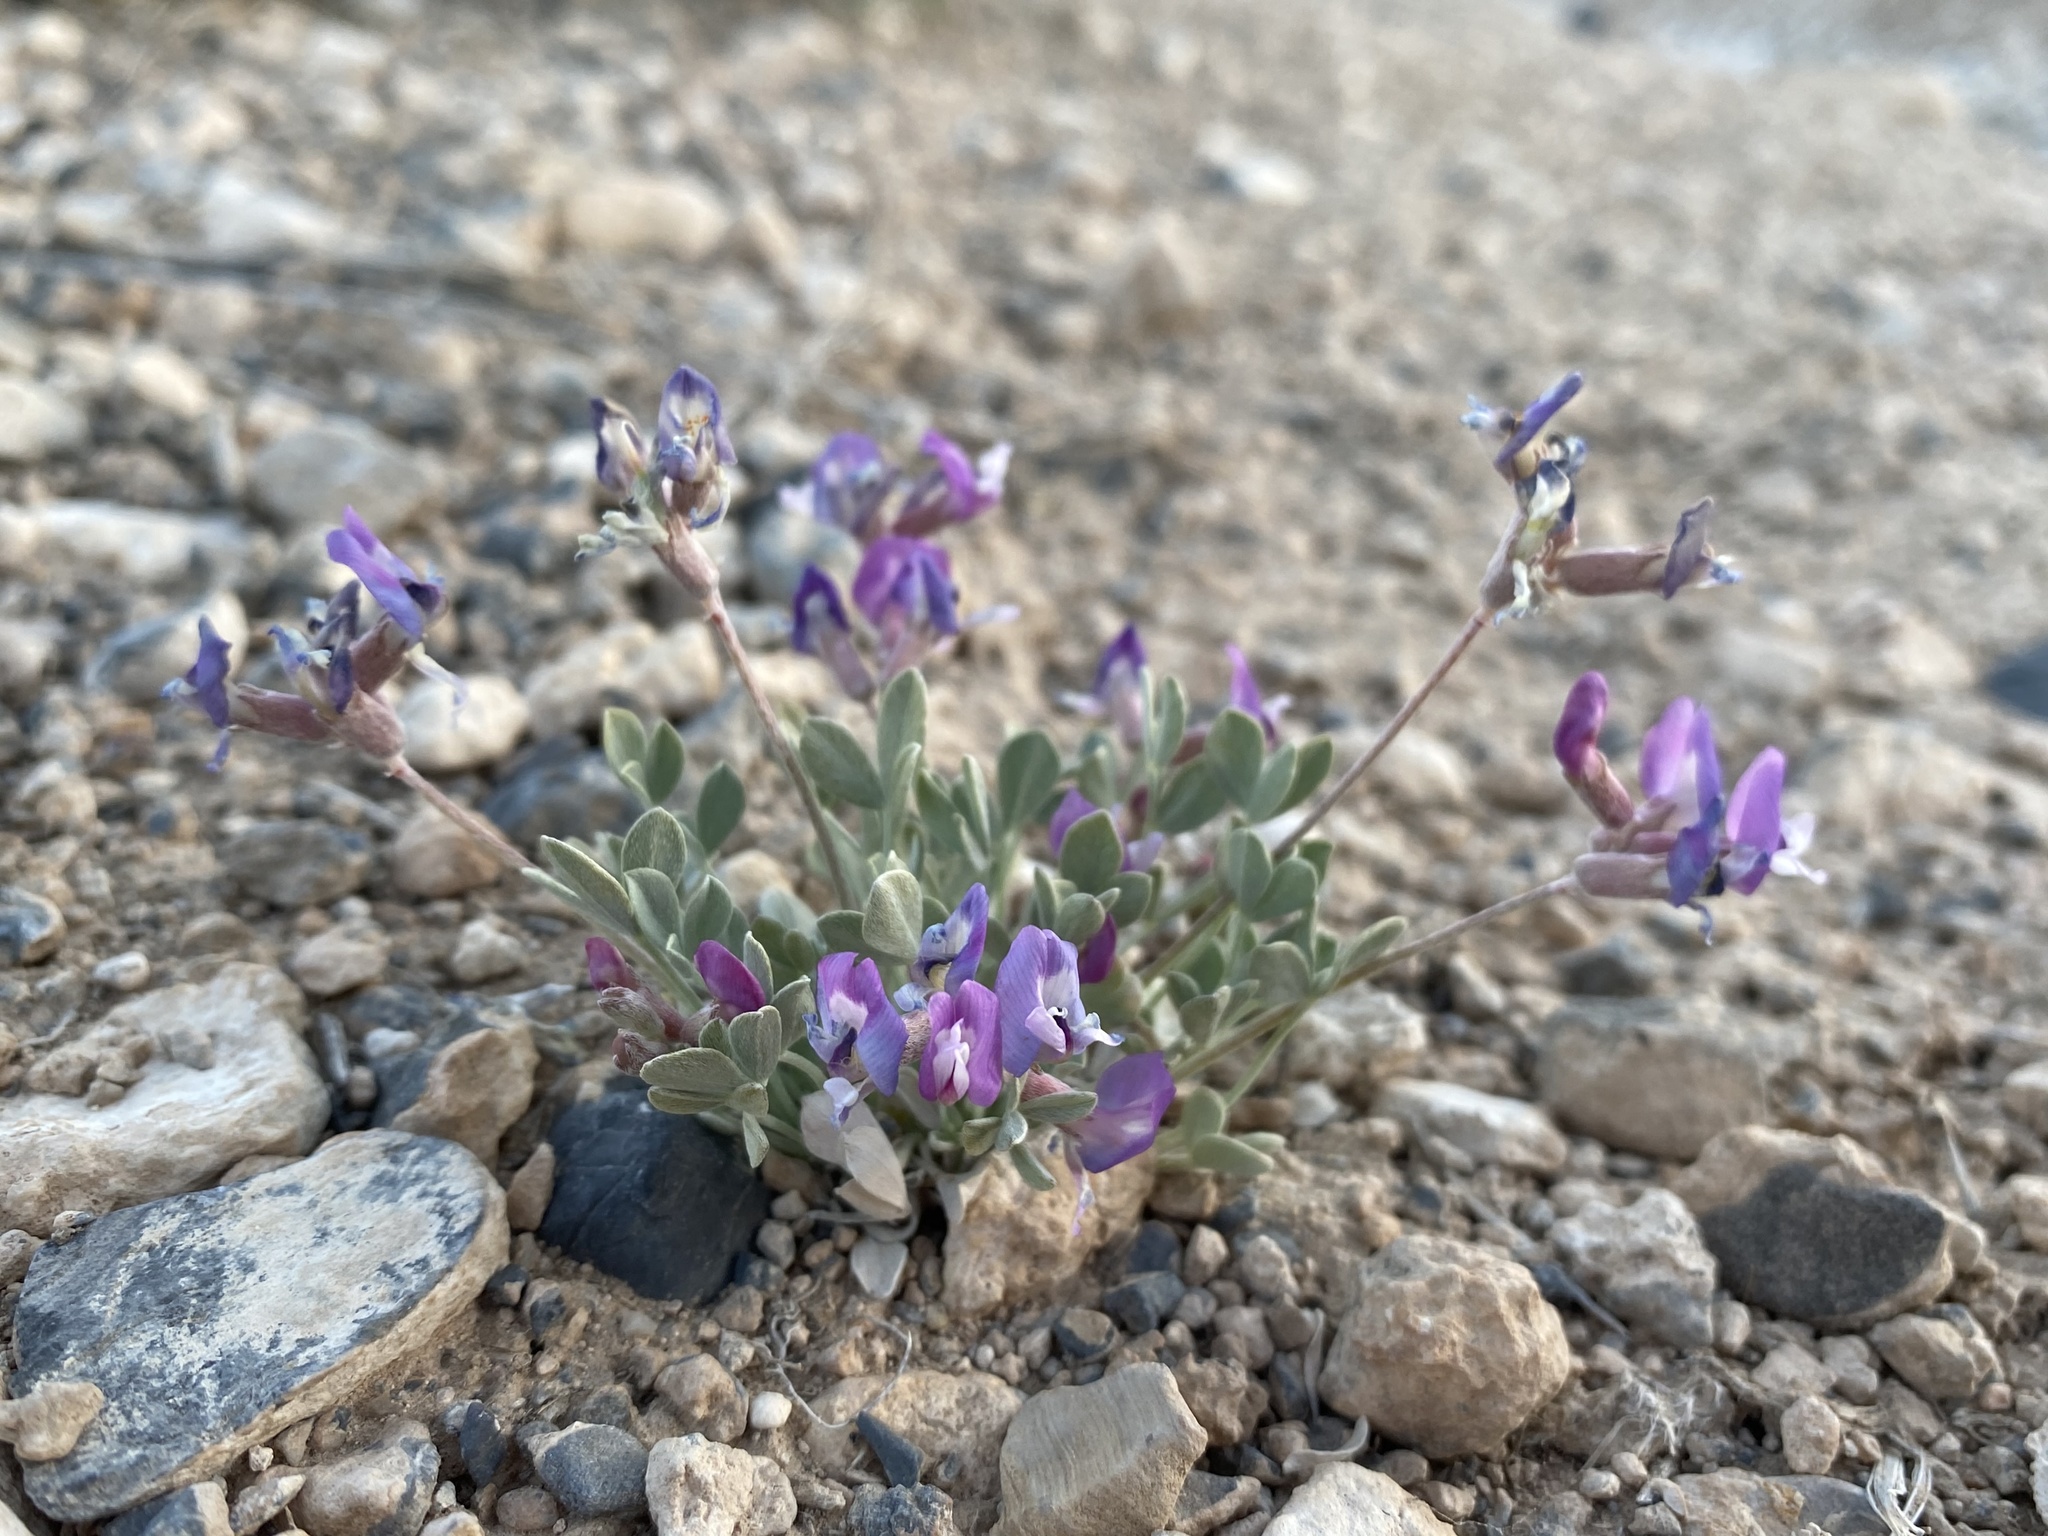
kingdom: Plantae
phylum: Tracheophyta
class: Magnoliopsida
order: Fabales
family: Fabaceae
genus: Astragalus
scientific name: Astragalus calycosus
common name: King's milkvetch
